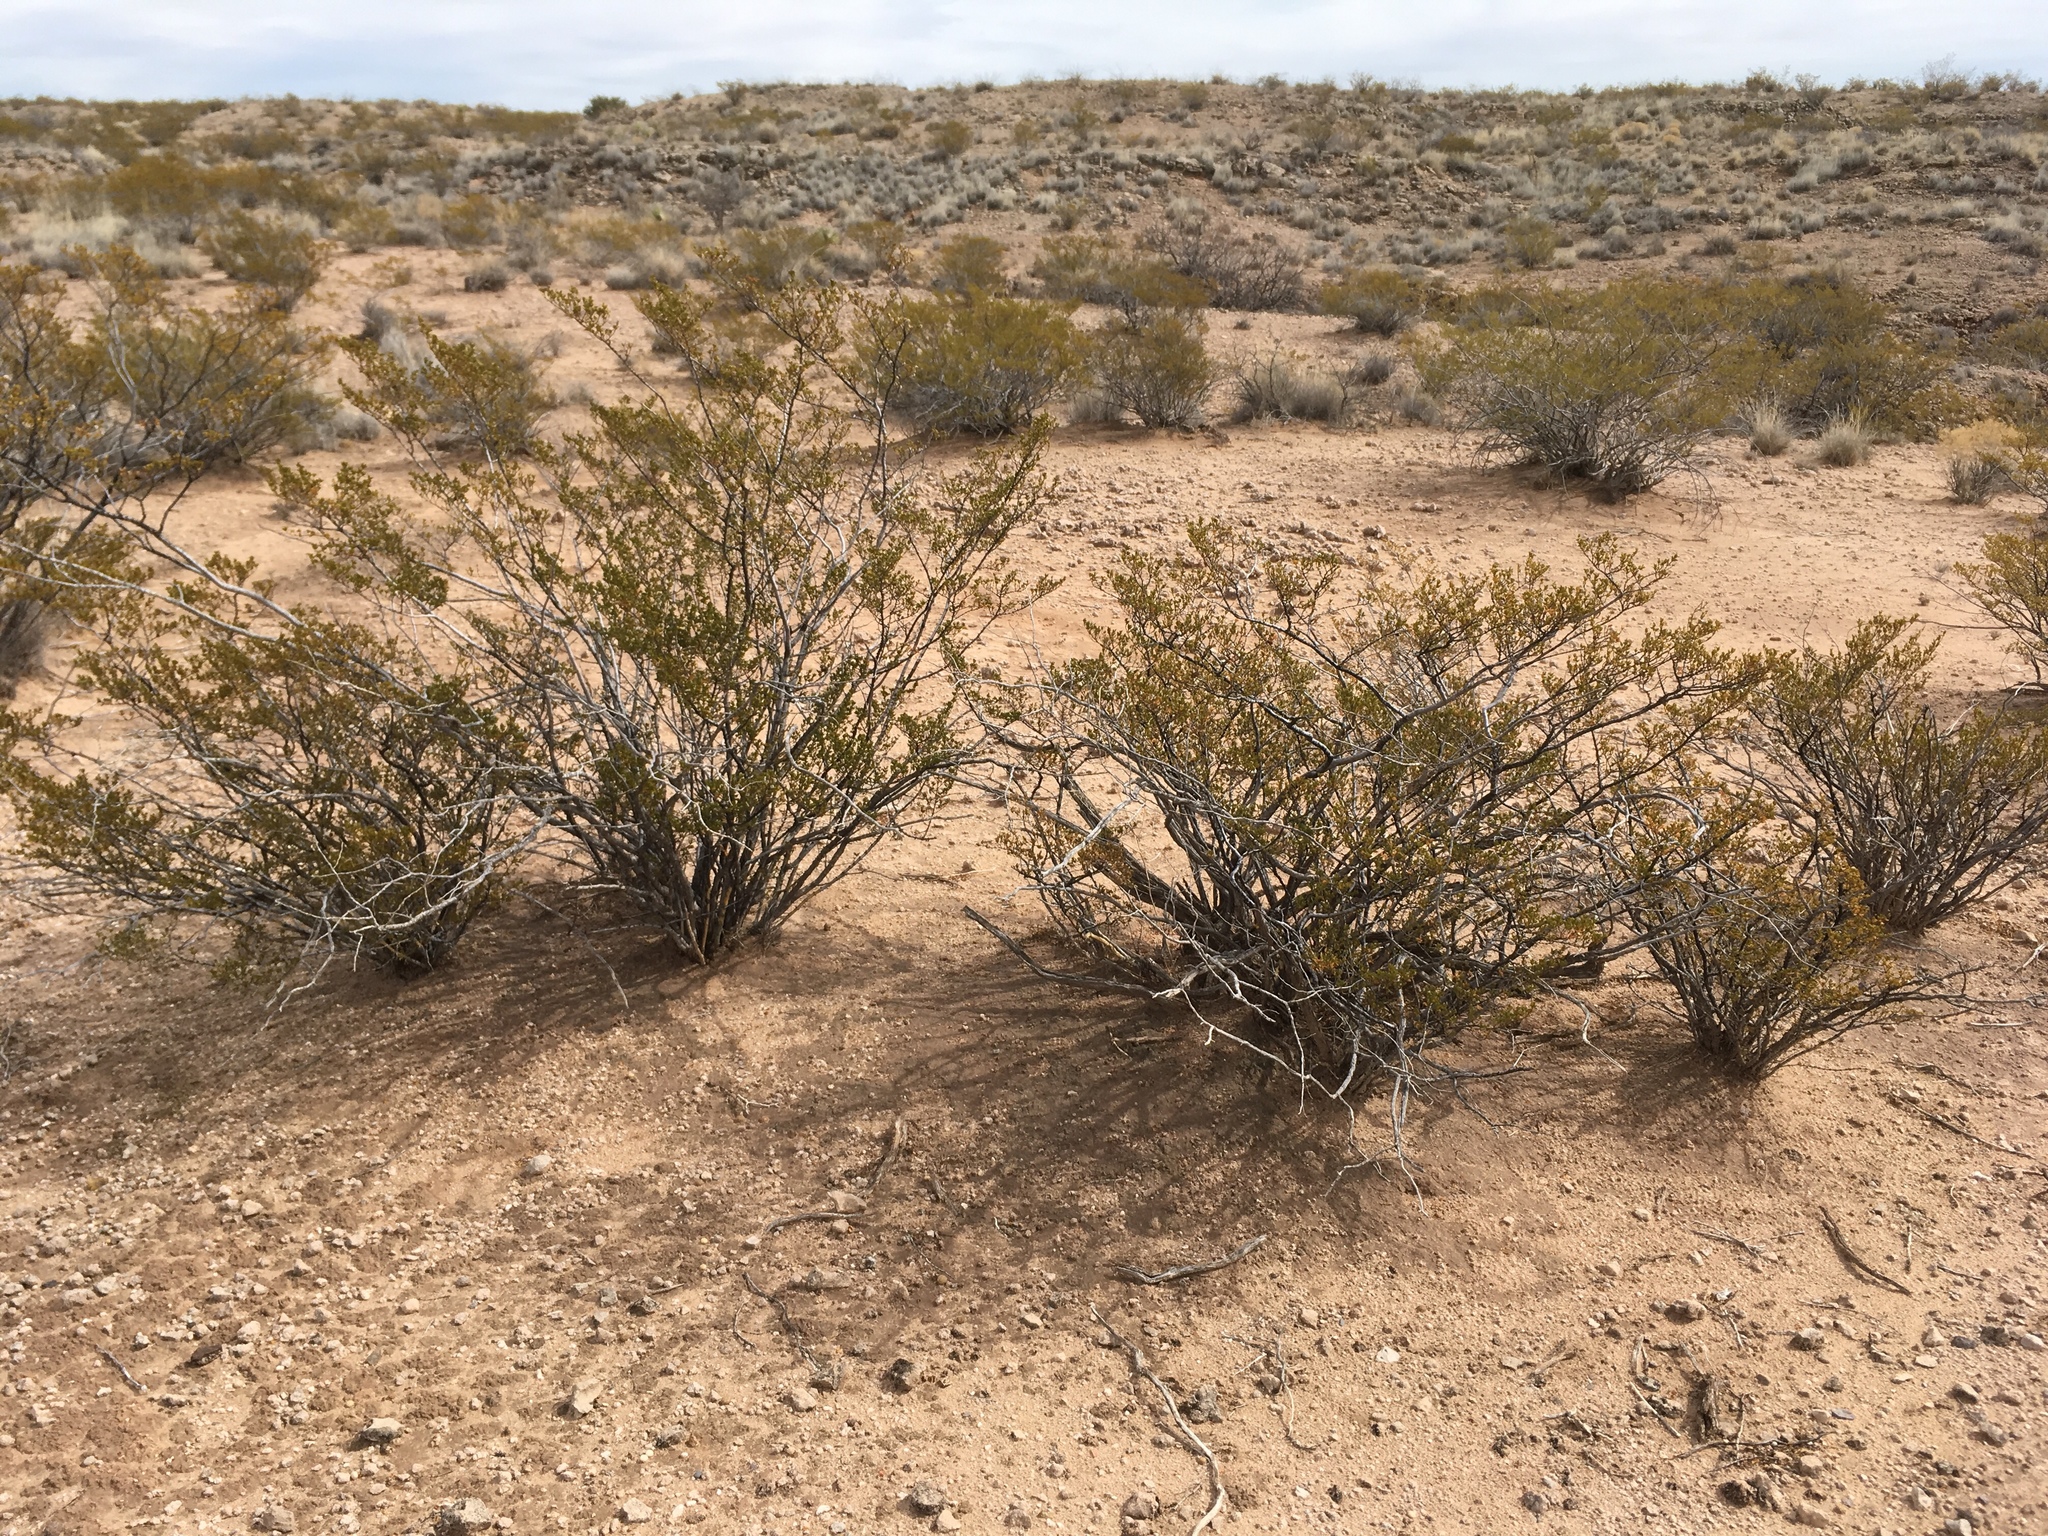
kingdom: Plantae
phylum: Tracheophyta
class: Magnoliopsida
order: Zygophyllales
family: Zygophyllaceae
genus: Larrea
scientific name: Larrea tridentata
